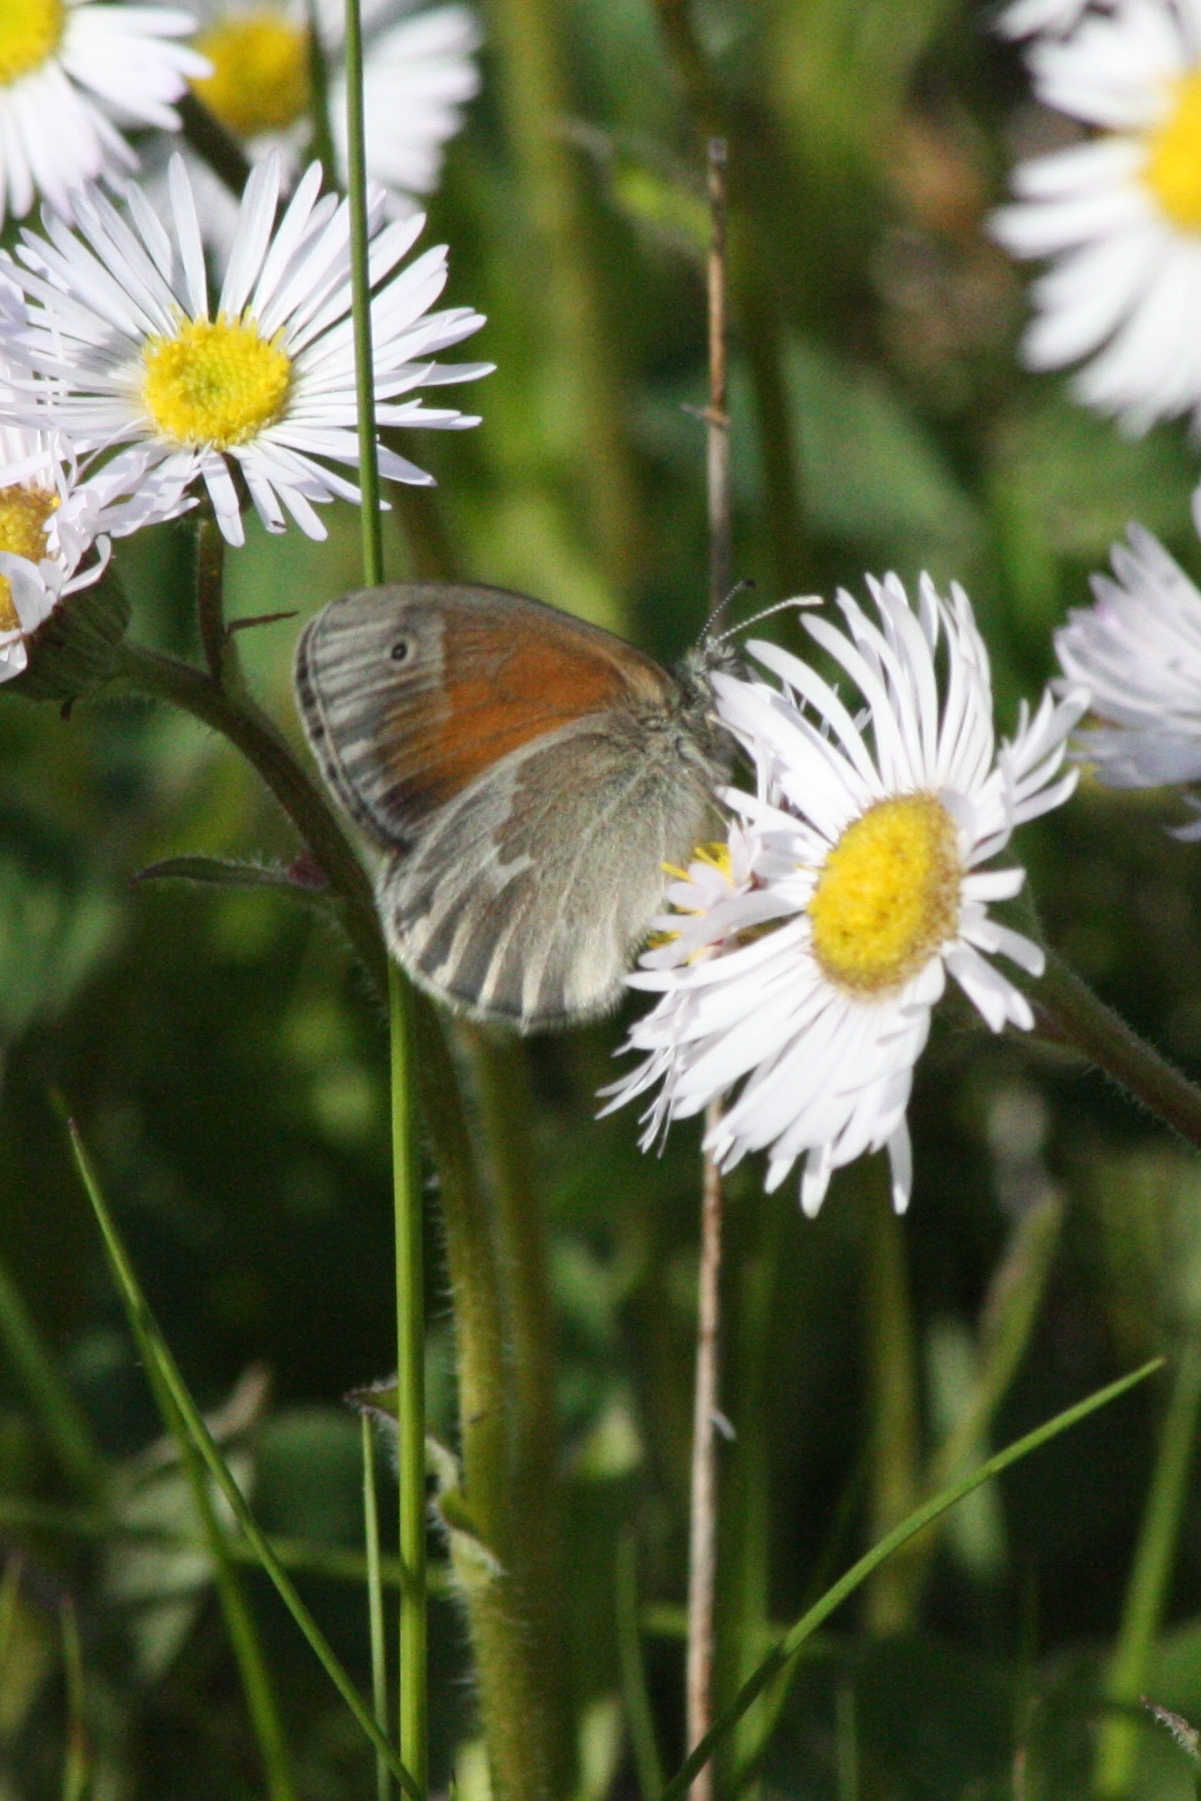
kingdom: Animalia
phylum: Arthropoda
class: Insecta
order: Lepidoptera
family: Nymphalidae
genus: Coenonympha
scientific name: Coenonympha california
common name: Common ringlet
